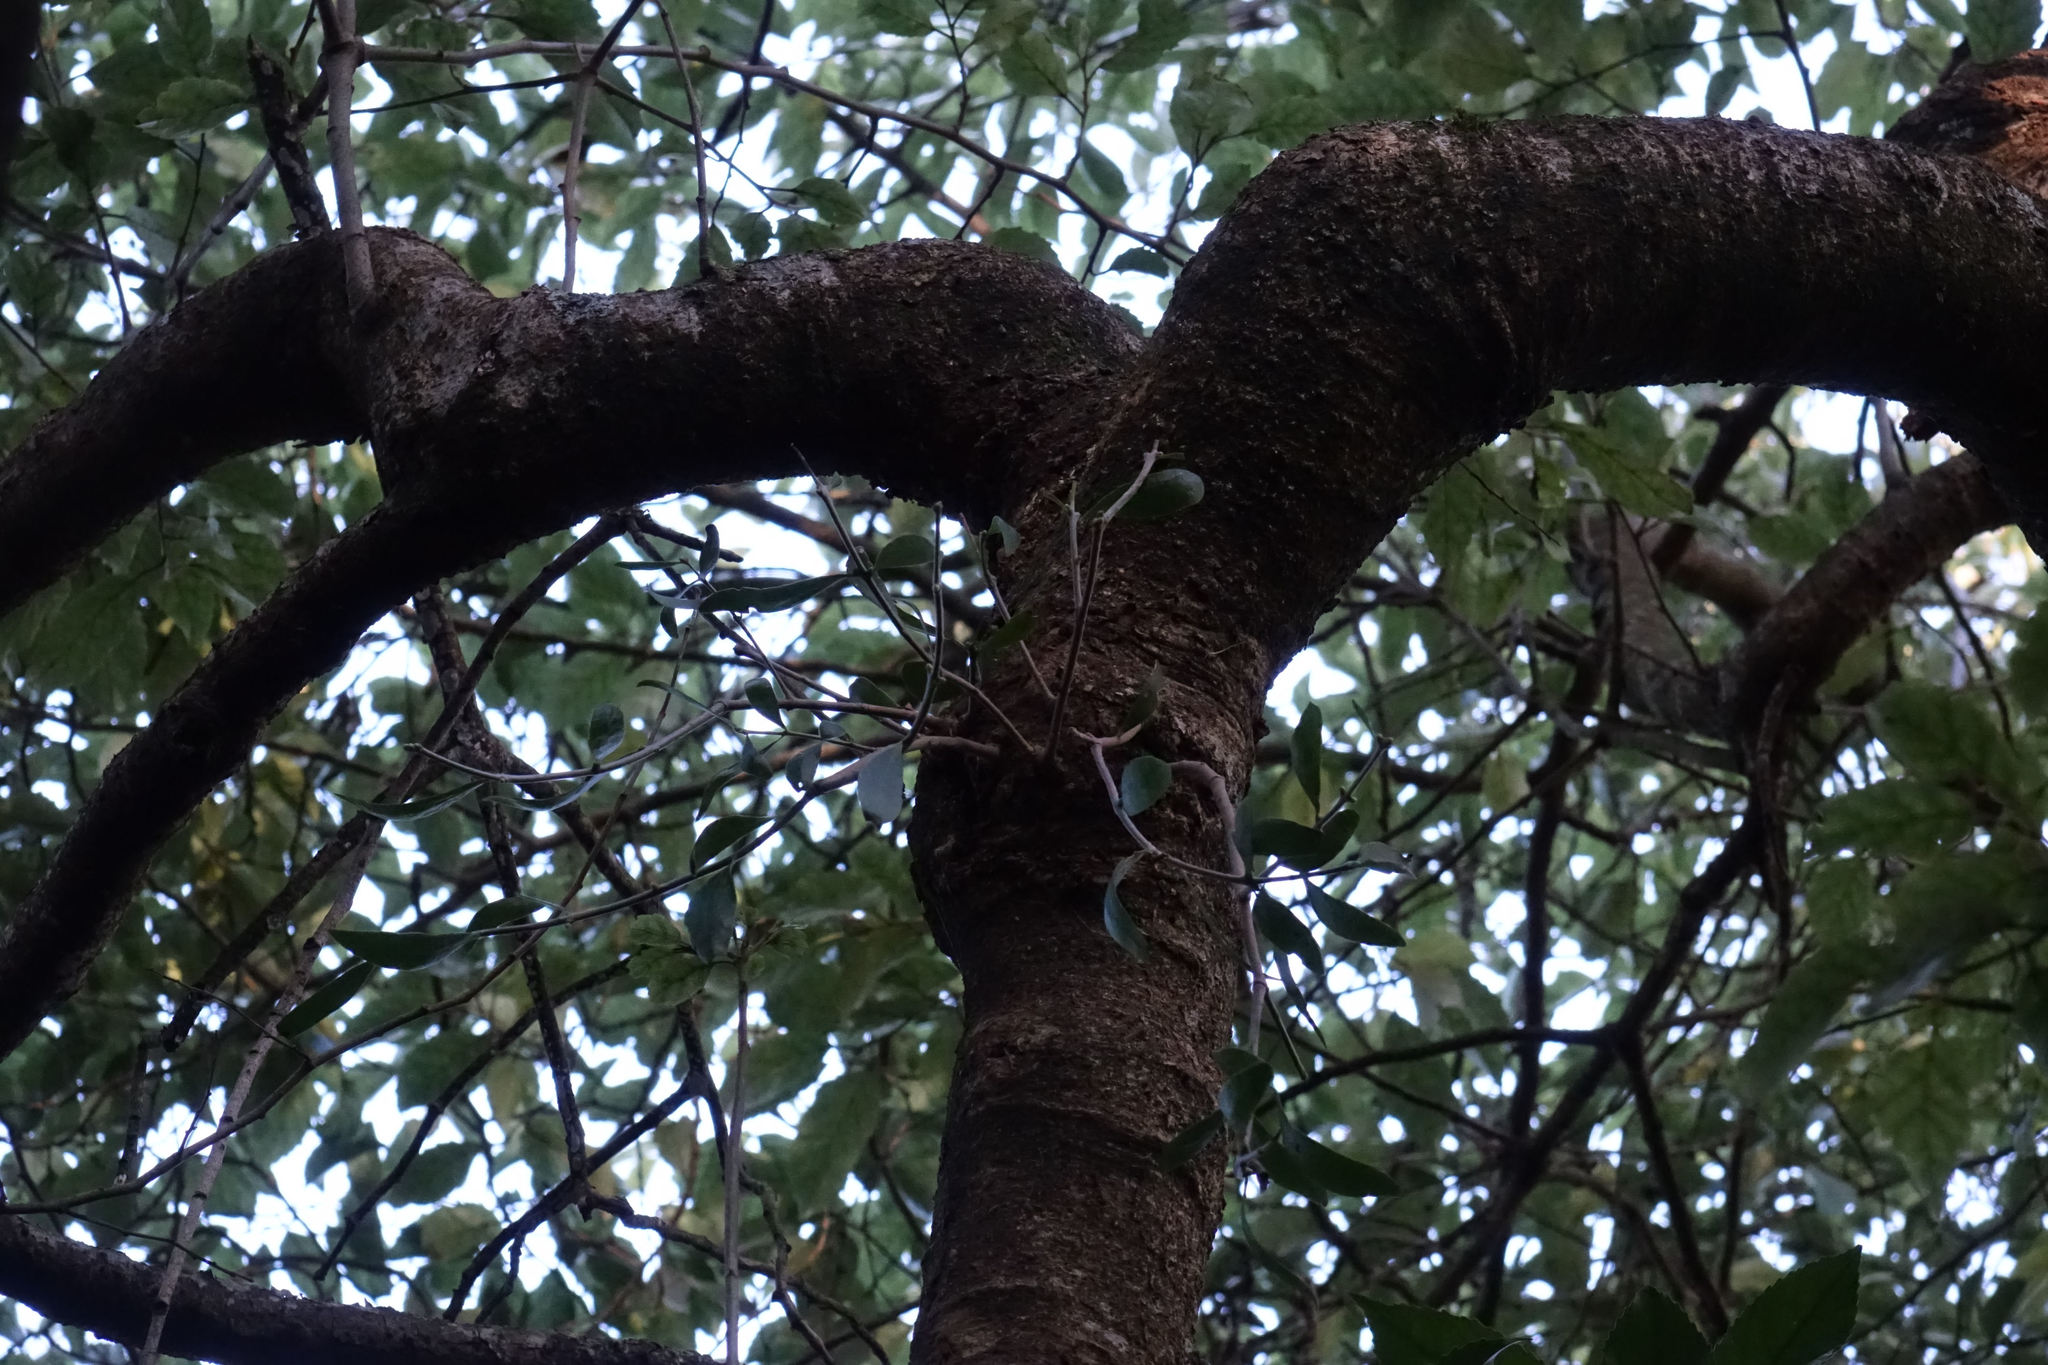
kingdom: Plantae
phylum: Tracheophyta
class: Magnoliopsida
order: Santalales
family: Loranthaceae
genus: Tupeia
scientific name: Tupeia antarctica
